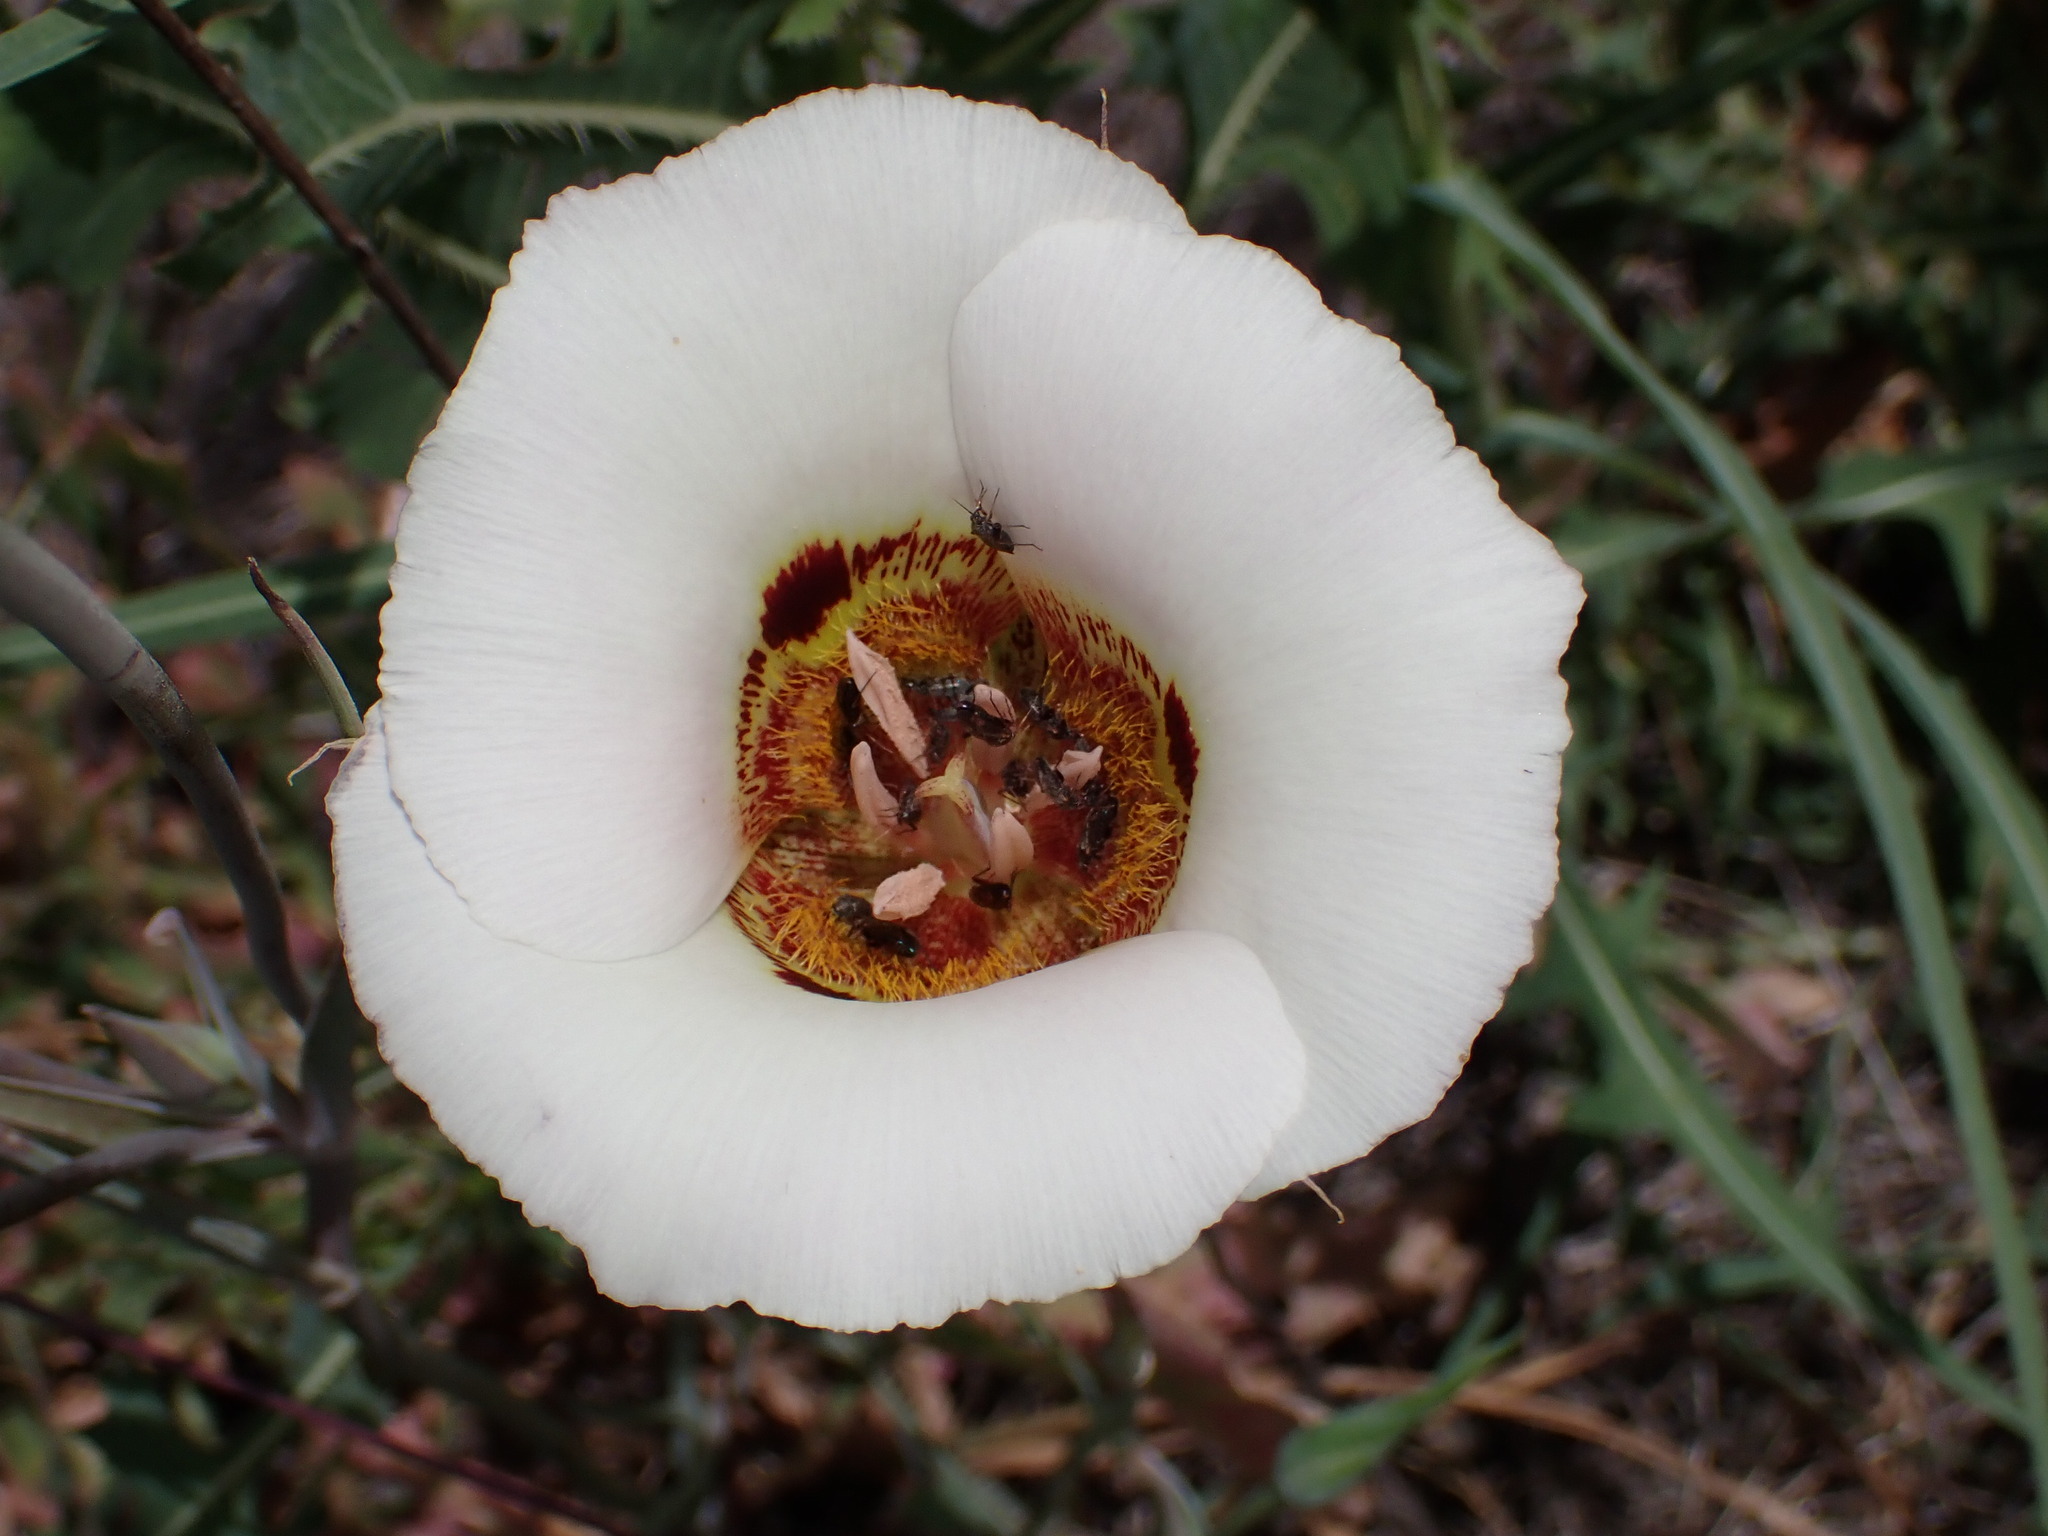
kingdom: Plantae
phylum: Tracheophyta
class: Liliopsida
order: Liliales
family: Liliaceae
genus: Calochortus
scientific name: Calochortus vestae
